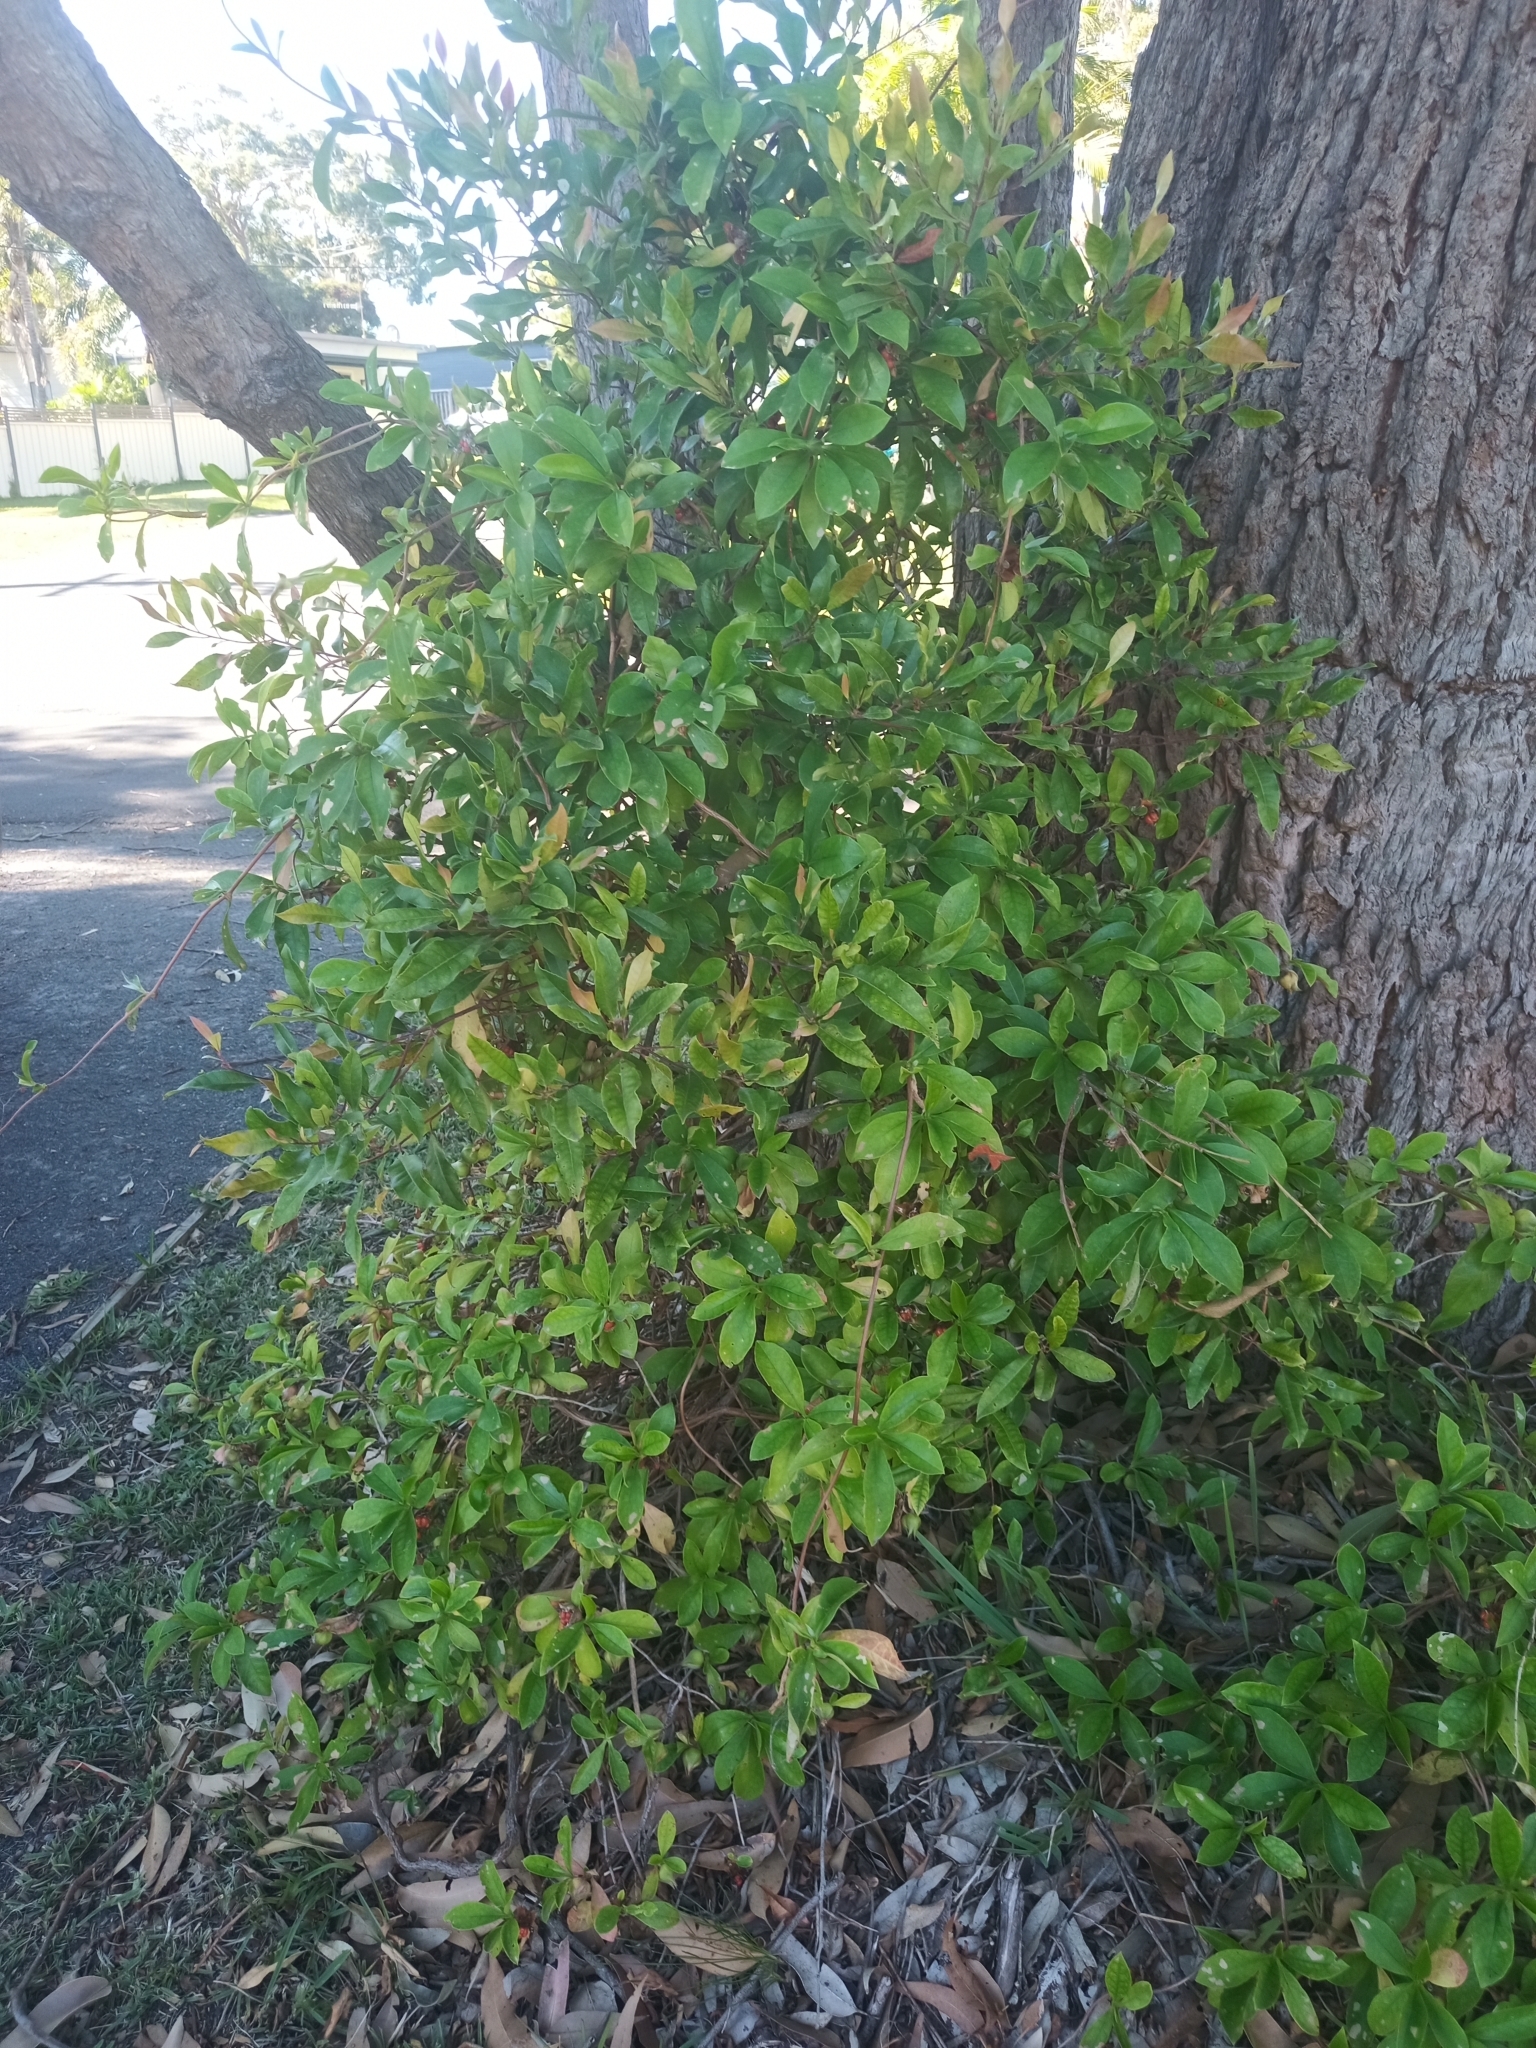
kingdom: Plantae
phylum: Tracheophyta
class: Magnoliopsida
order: Dilleniales
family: Dilleniaceae
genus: Hibbertia
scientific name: Hibbertia scandens
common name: Climbing guinea-flower
